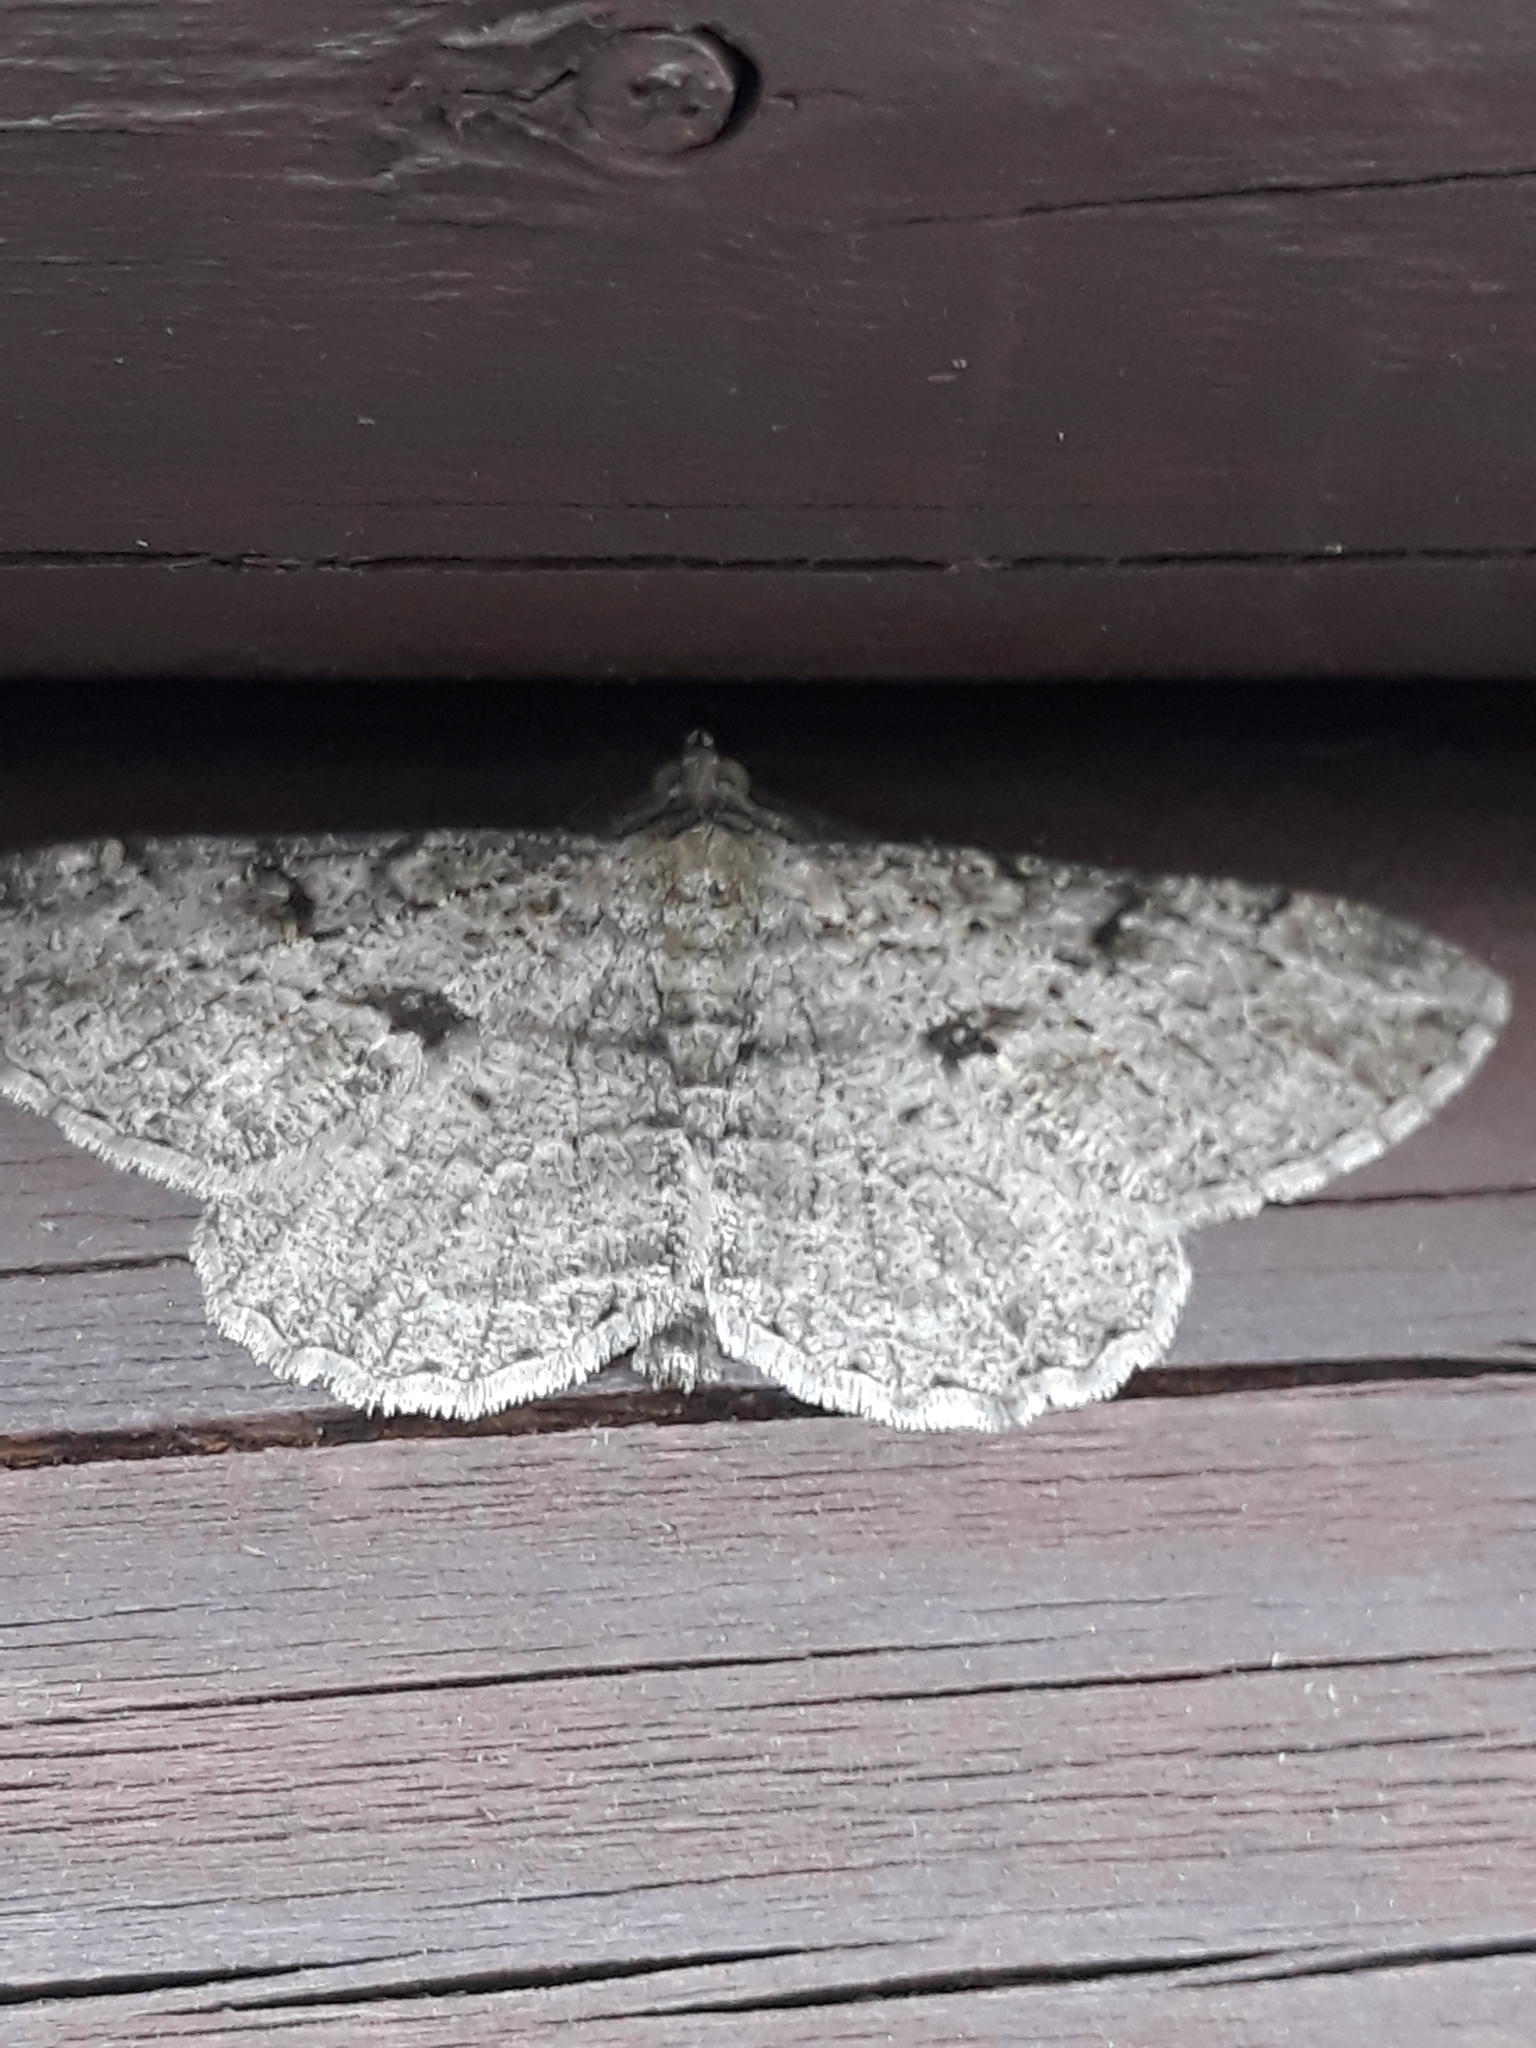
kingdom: Animalia
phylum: Arthropoda
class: Insecta
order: Lepidoptera
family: Geometridae
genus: Peribatodes
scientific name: Peribatodes rhomboidaria
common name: Willow beauty
